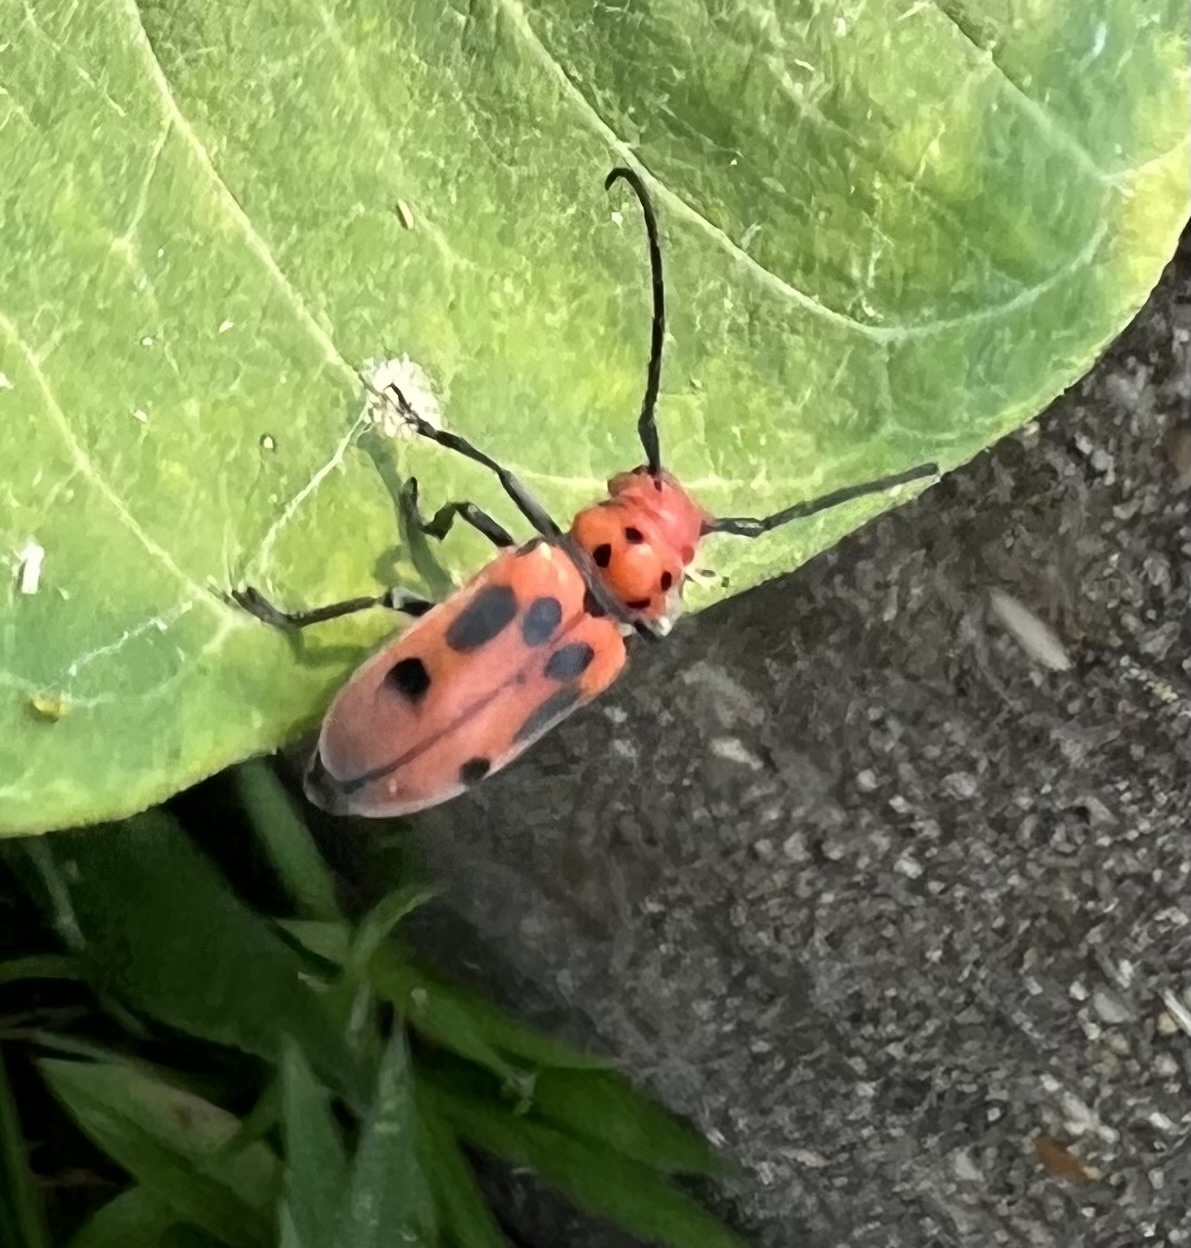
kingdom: Animalia
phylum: Arthropoda
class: Insecta
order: Coleoptera
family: Cerambycidae
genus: Tetraopes
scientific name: Tetraopes tetrophthalmus
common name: Red milkweed beetle
